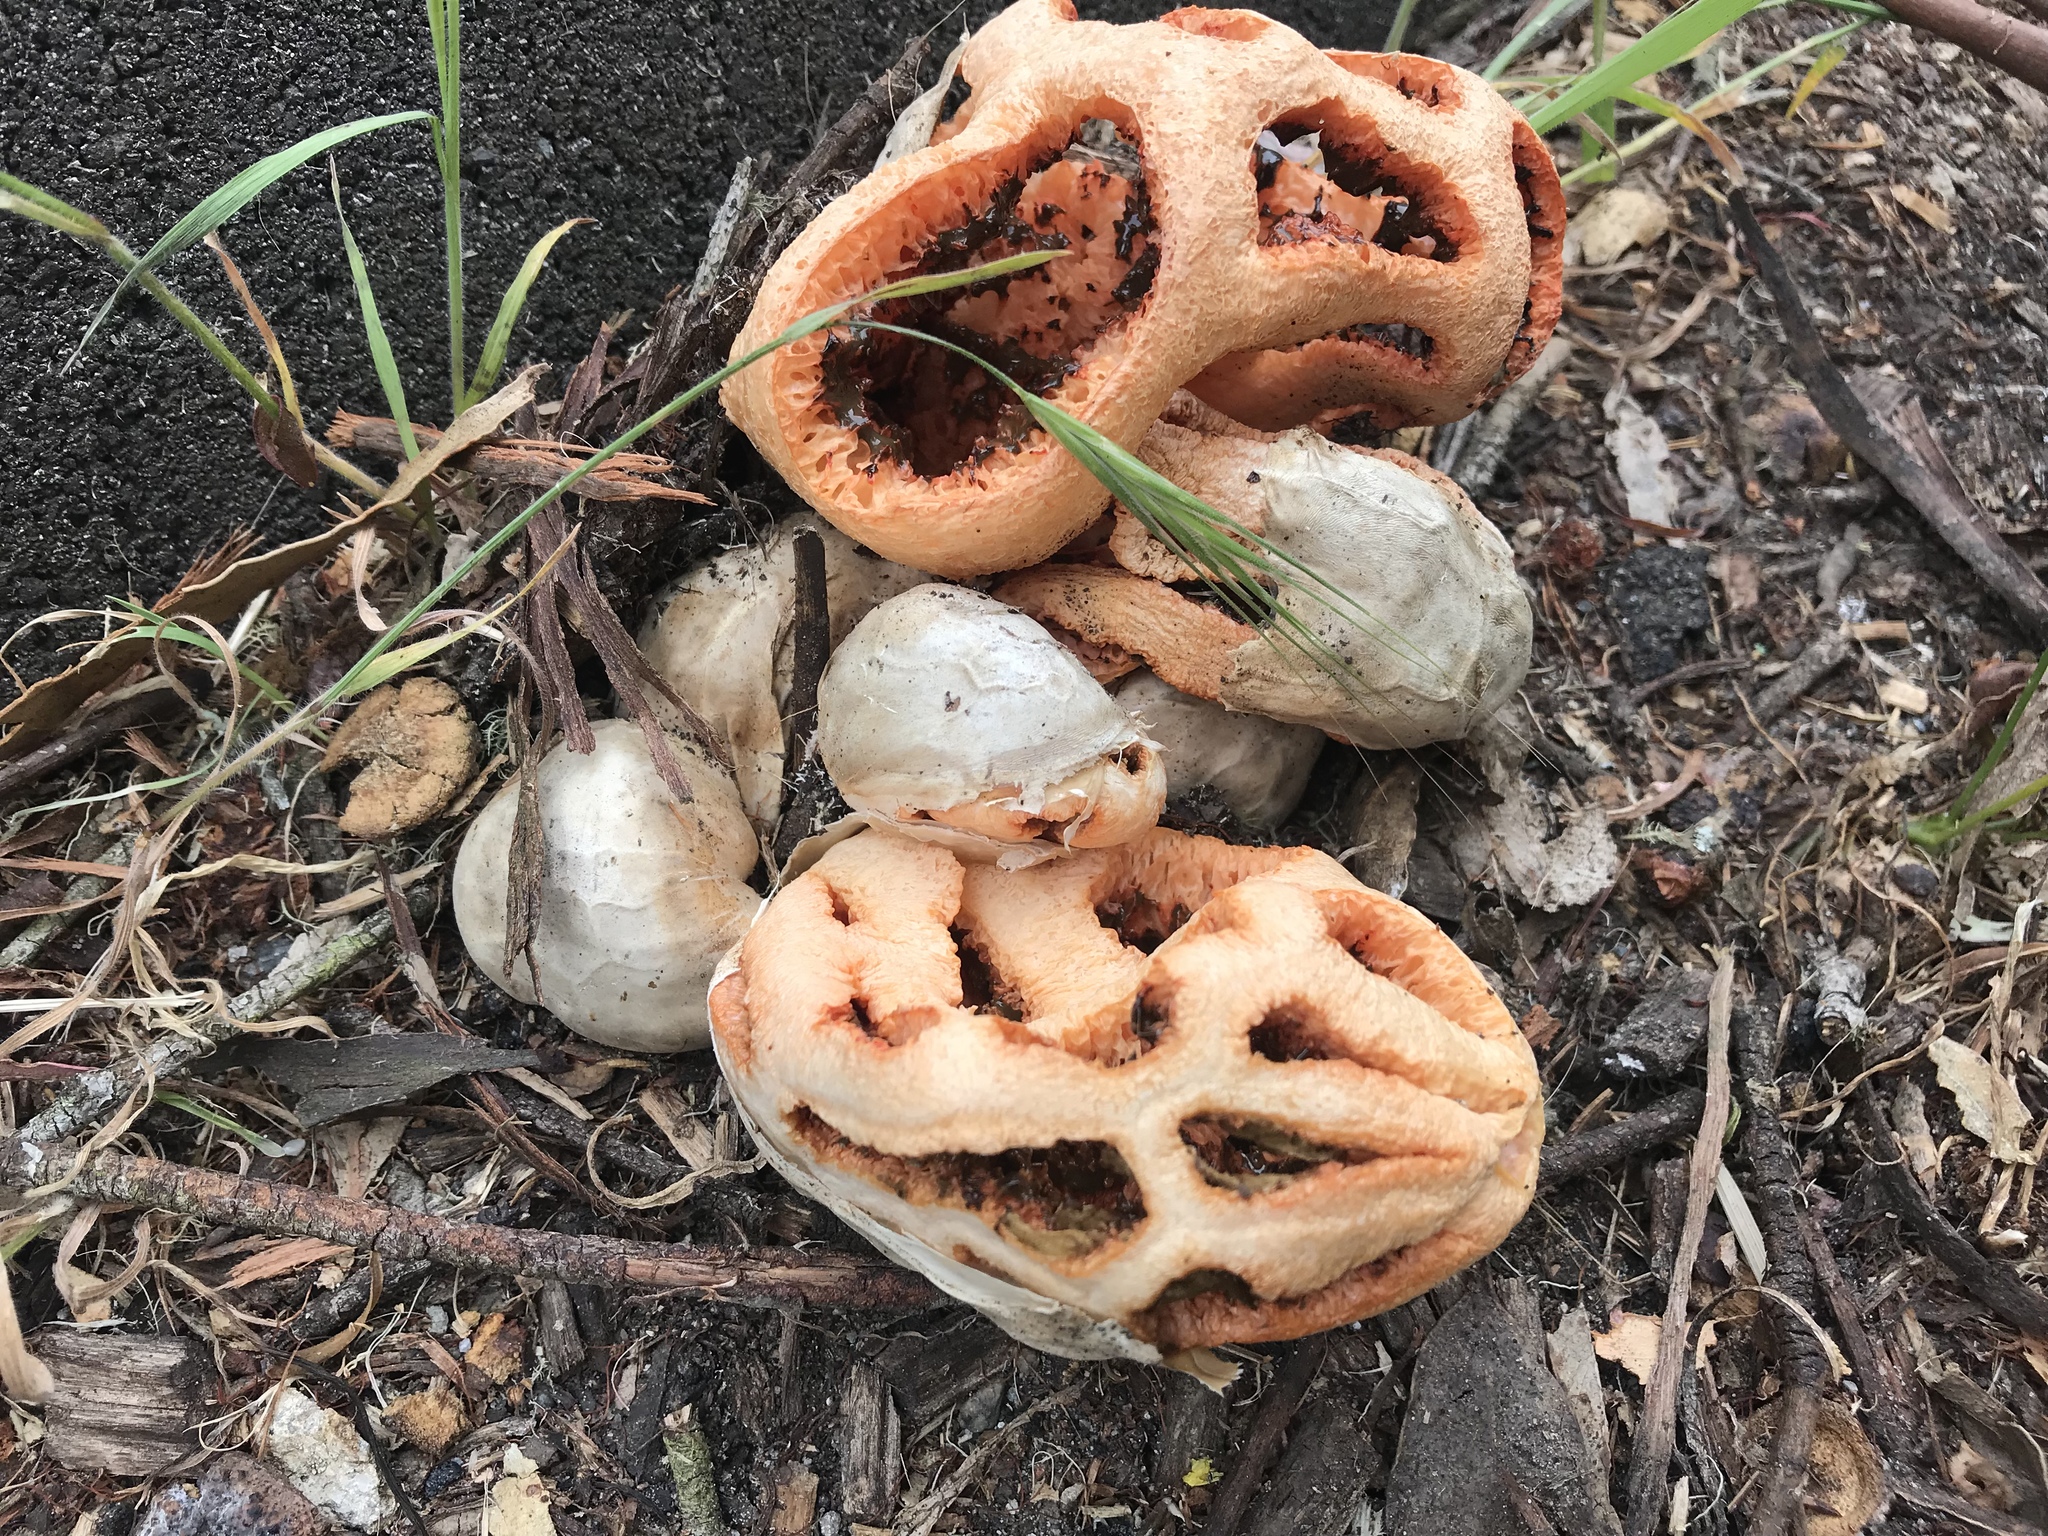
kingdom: Fungi
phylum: Basidiomycota
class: Agaricomycetes
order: Phallales
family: Phallaceae
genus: Clathrus
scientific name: Clathrus ruber
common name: Red cage
